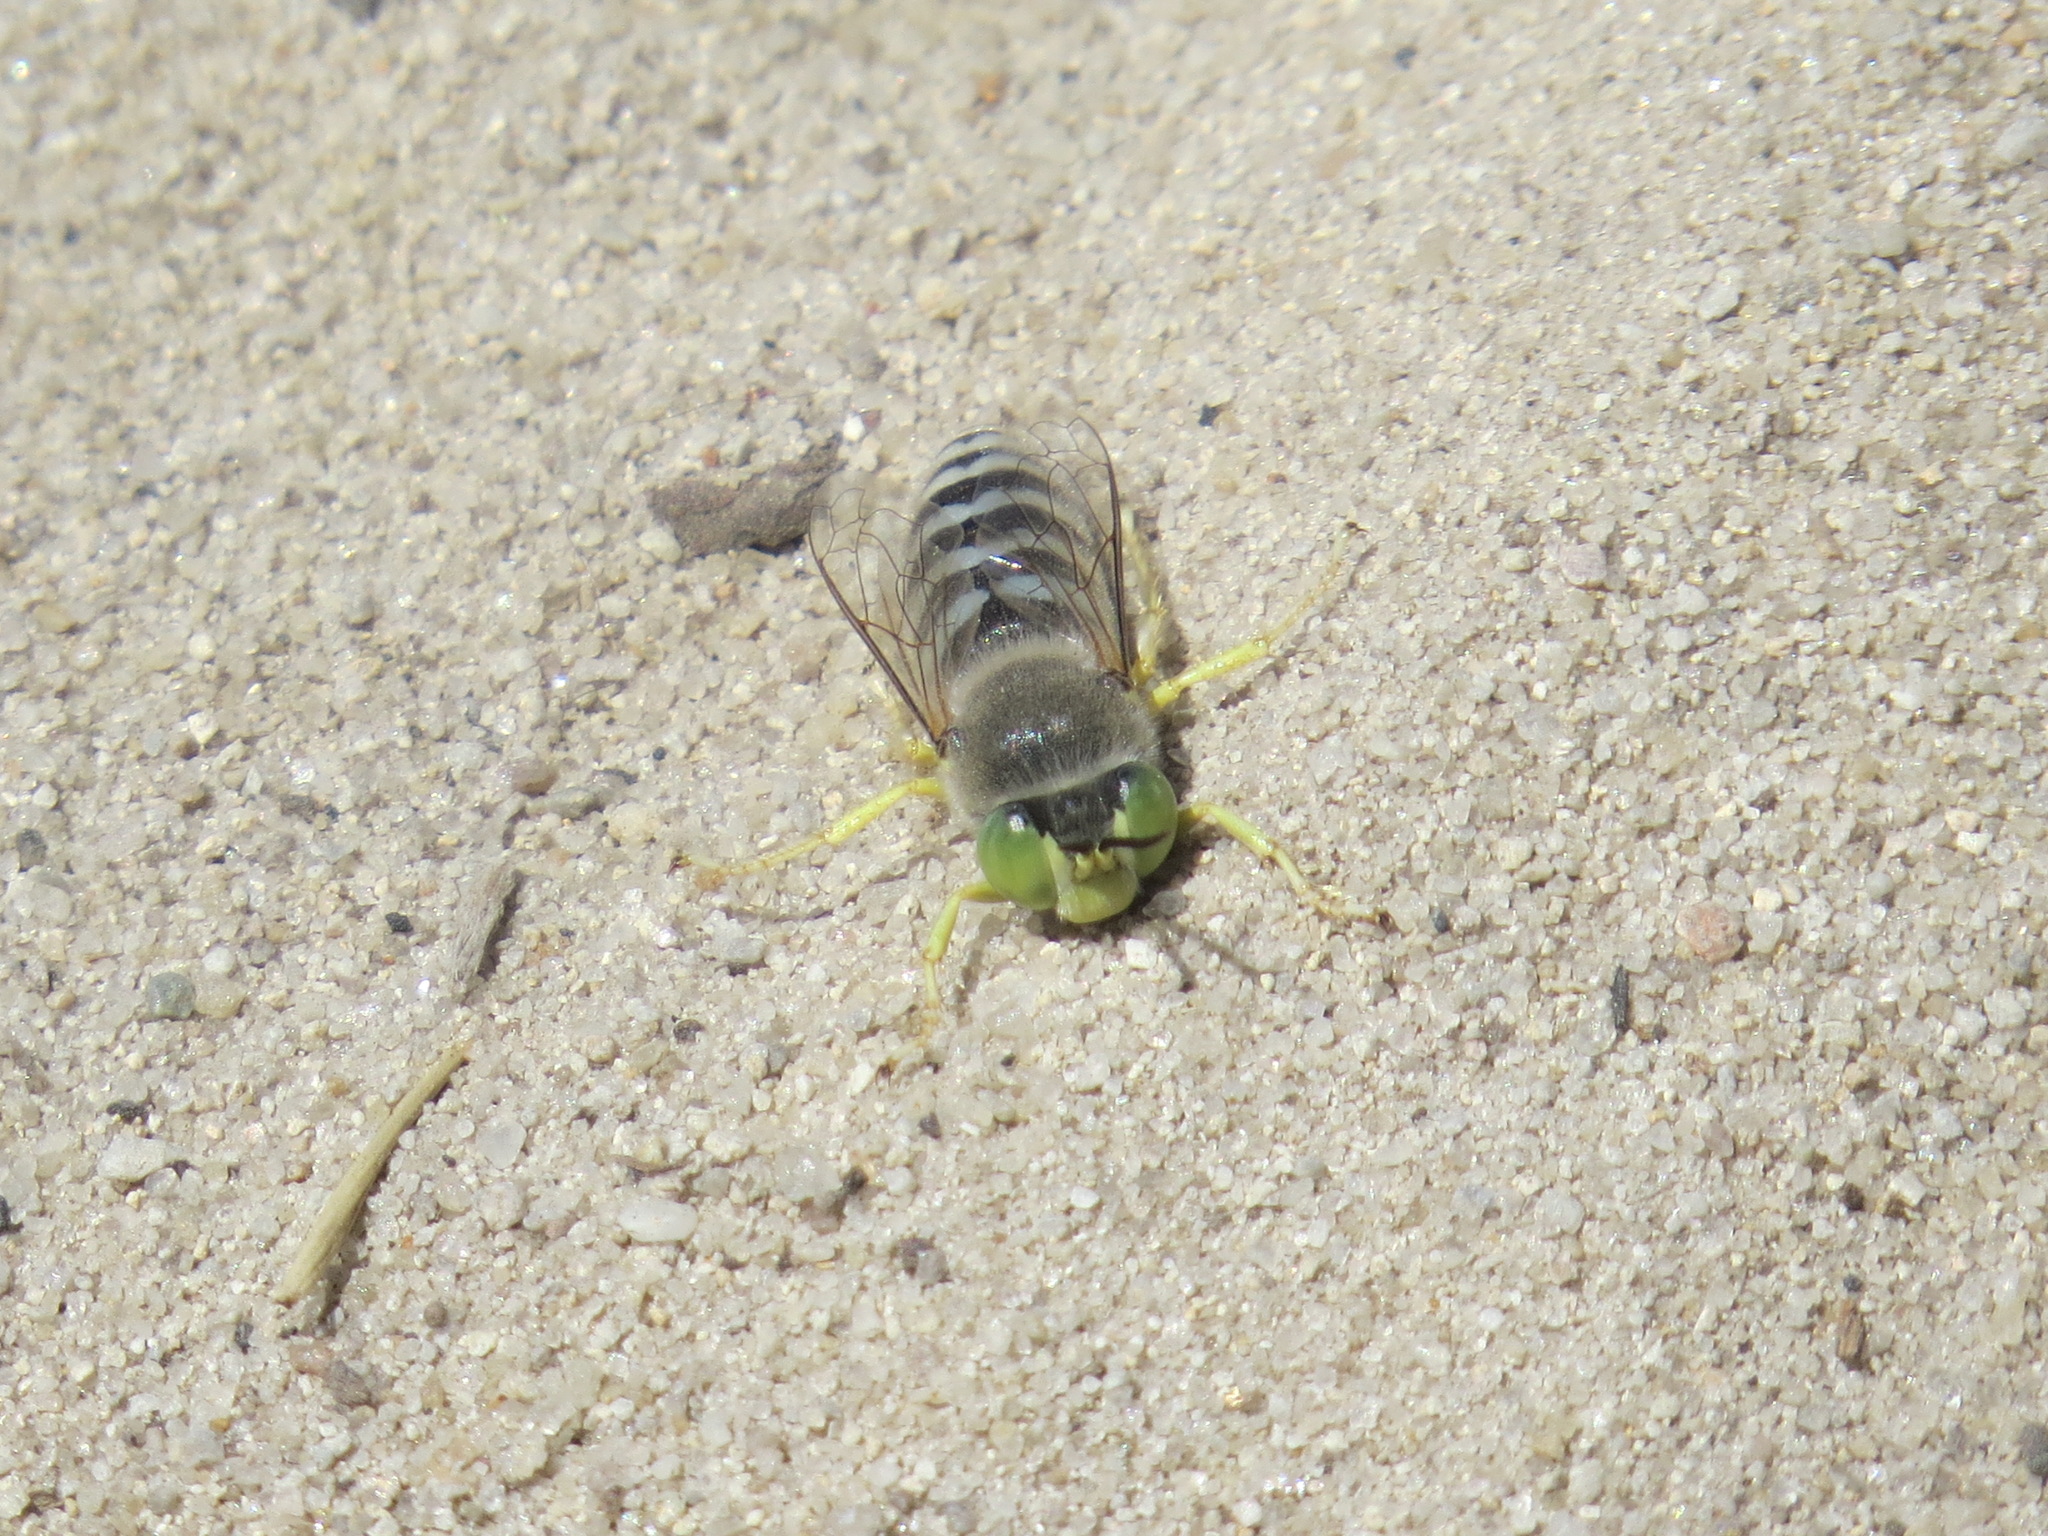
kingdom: Animalia
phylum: Arthropoda
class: Insecta
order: Hymenoptera
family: Crabronidae
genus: Bembix
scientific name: Bembix americana
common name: American sand wasp
